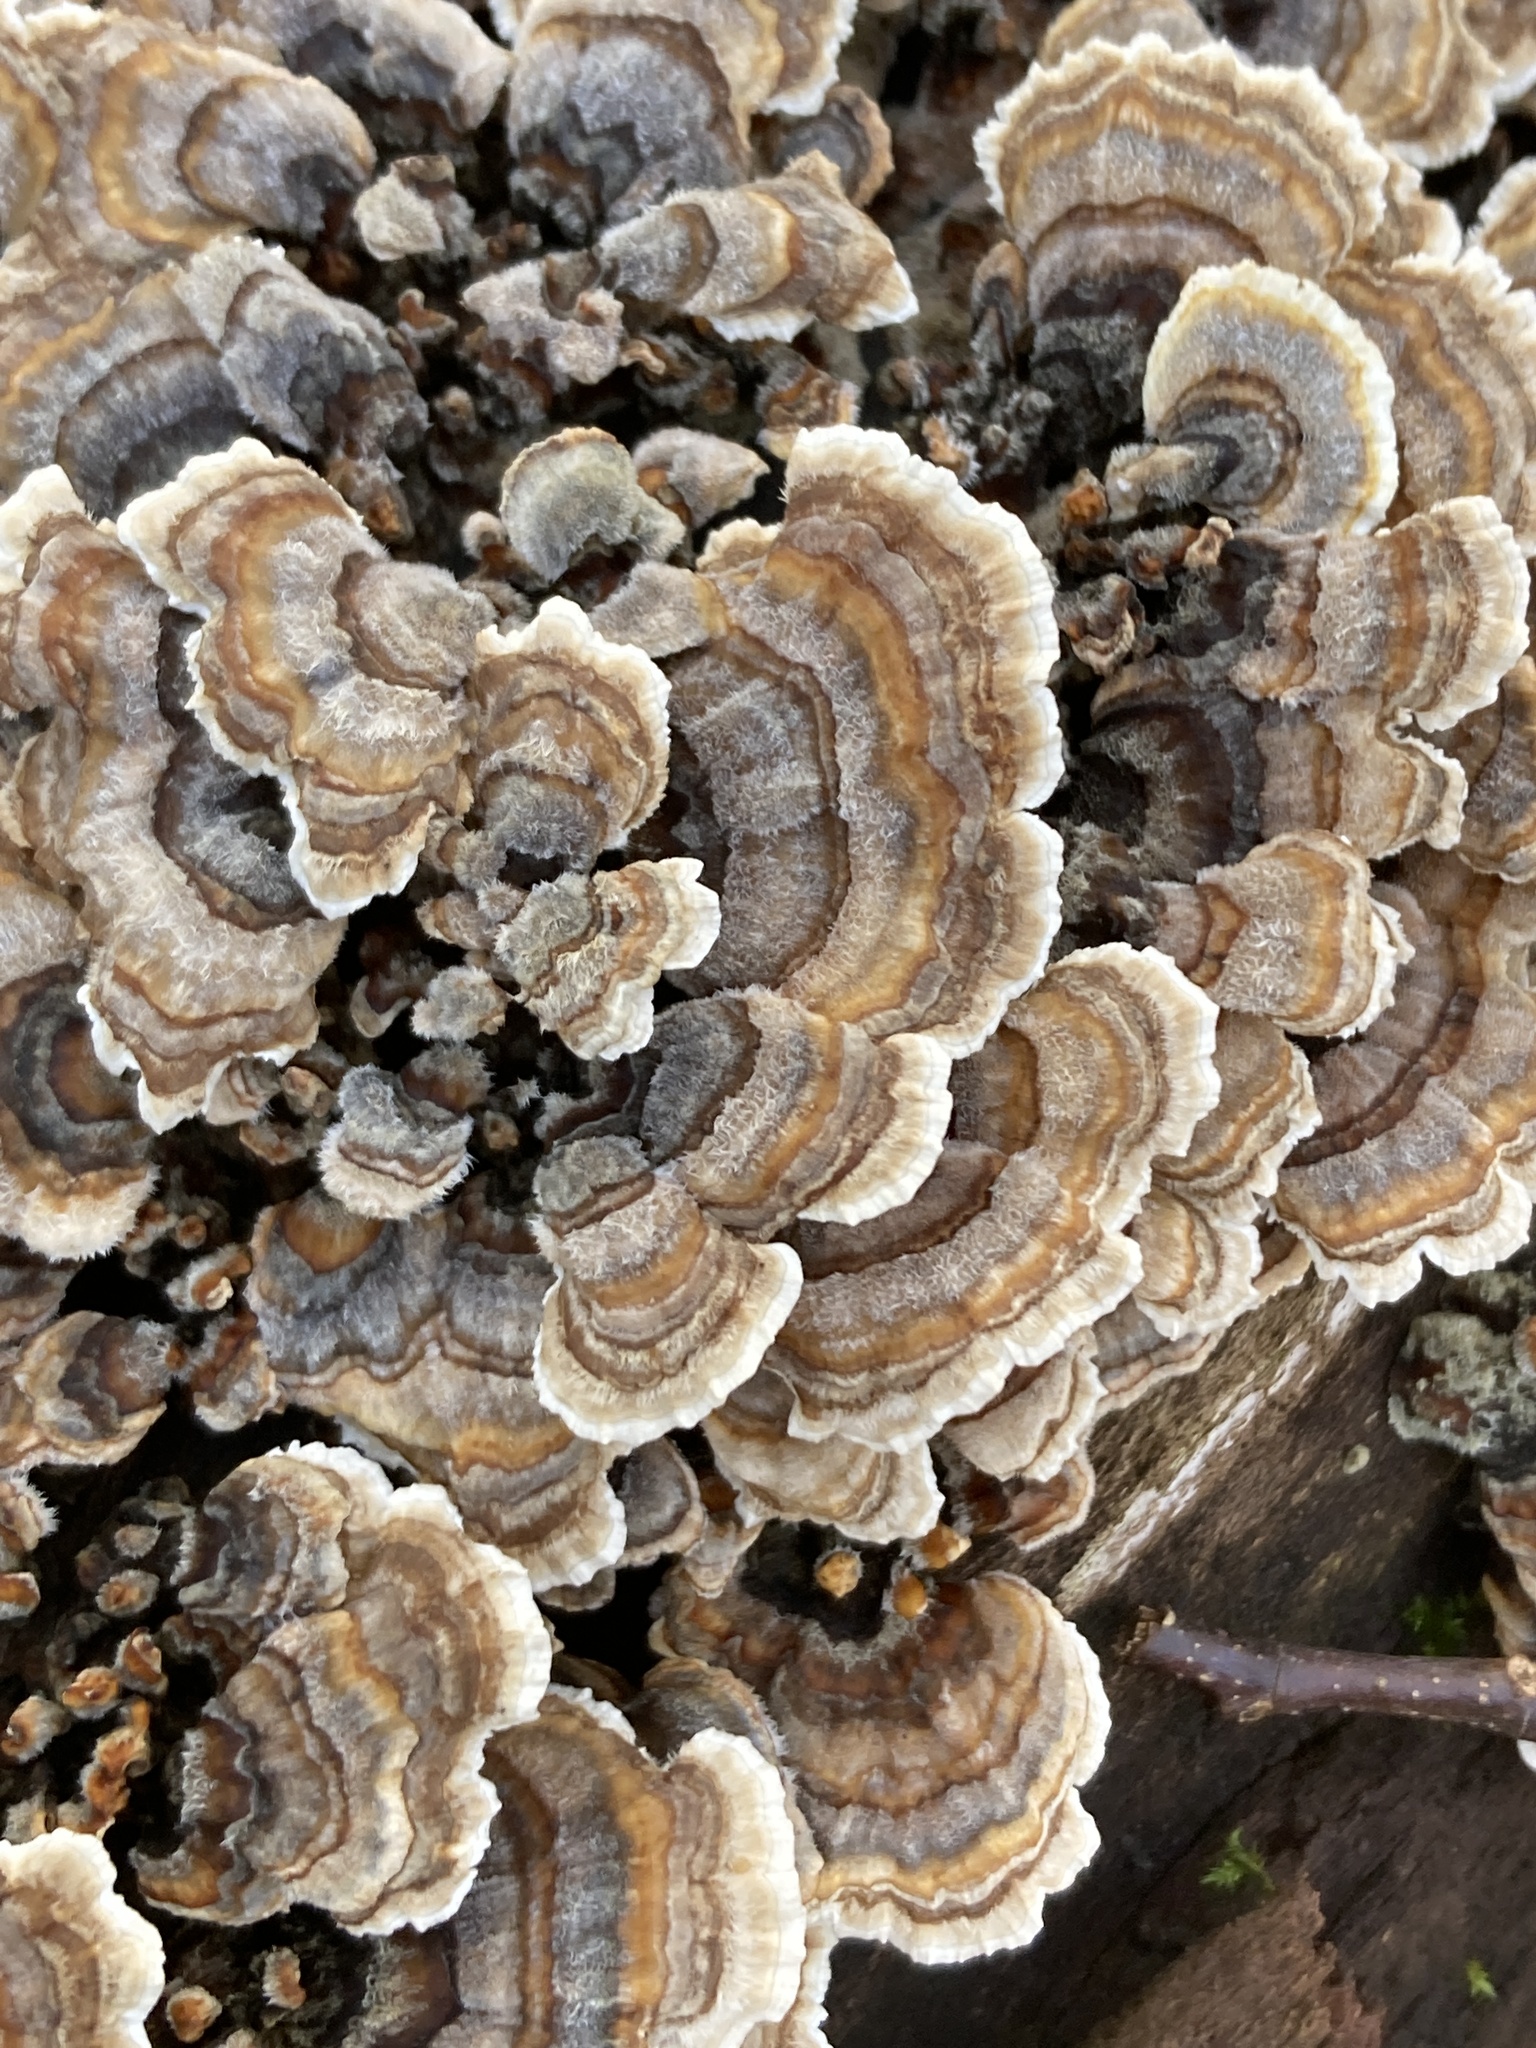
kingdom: Fungi
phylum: Basidiomycota
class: Agaricomycetes
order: Polyporales
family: Polyporaceae
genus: Trametes
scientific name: Trametes versicolor
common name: Turkeytail
